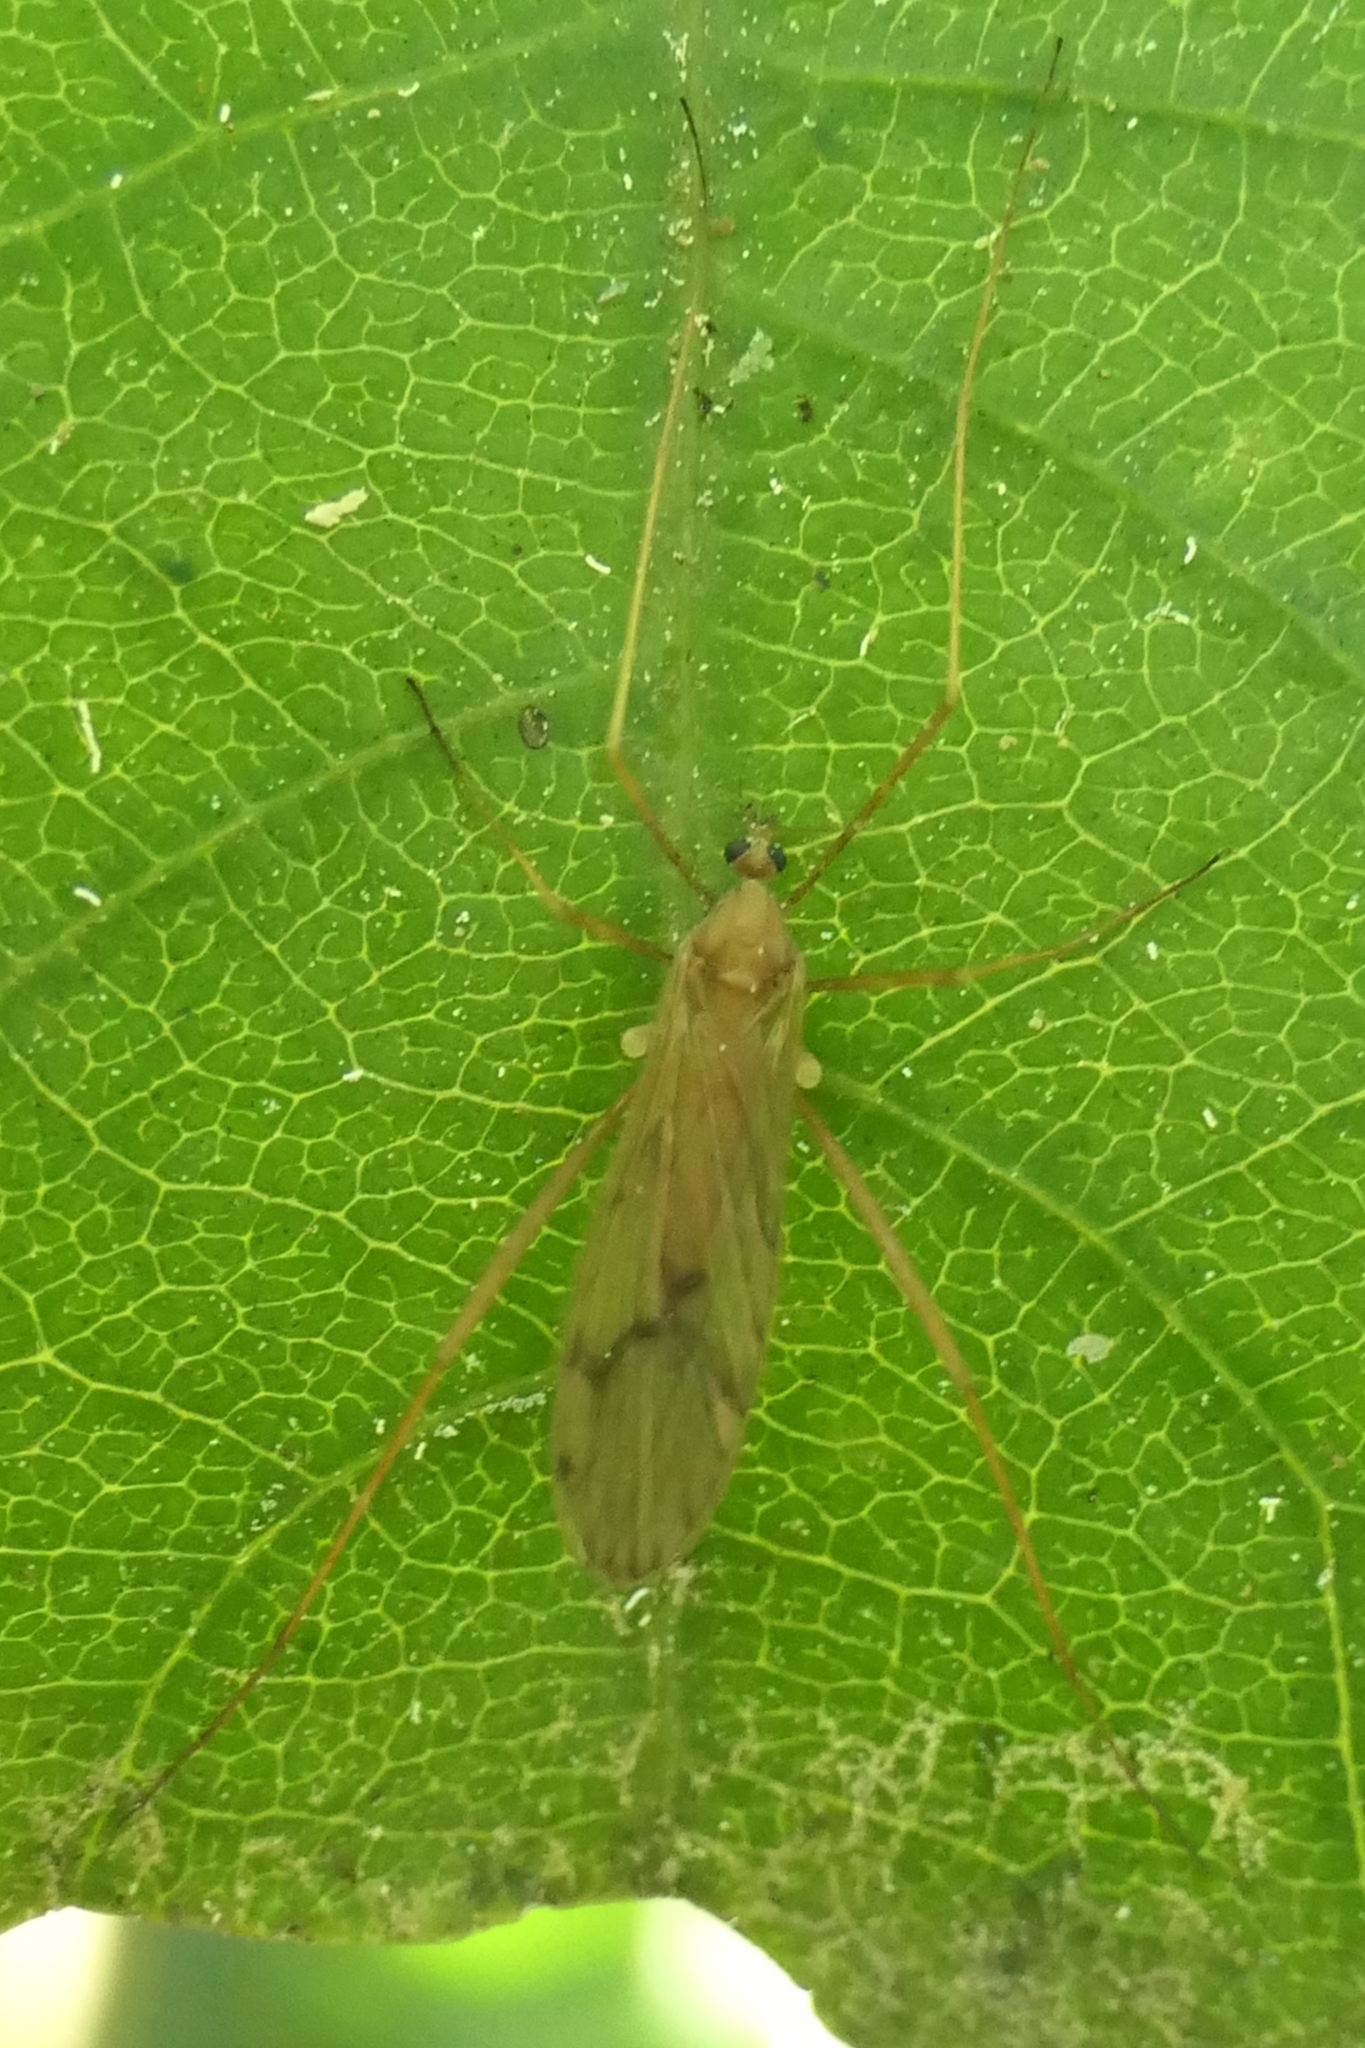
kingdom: Animalia
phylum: Arthropoda
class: Insecta
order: Diptera
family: Limoniidae
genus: Amphineurus
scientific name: Amphineurus insulsus
